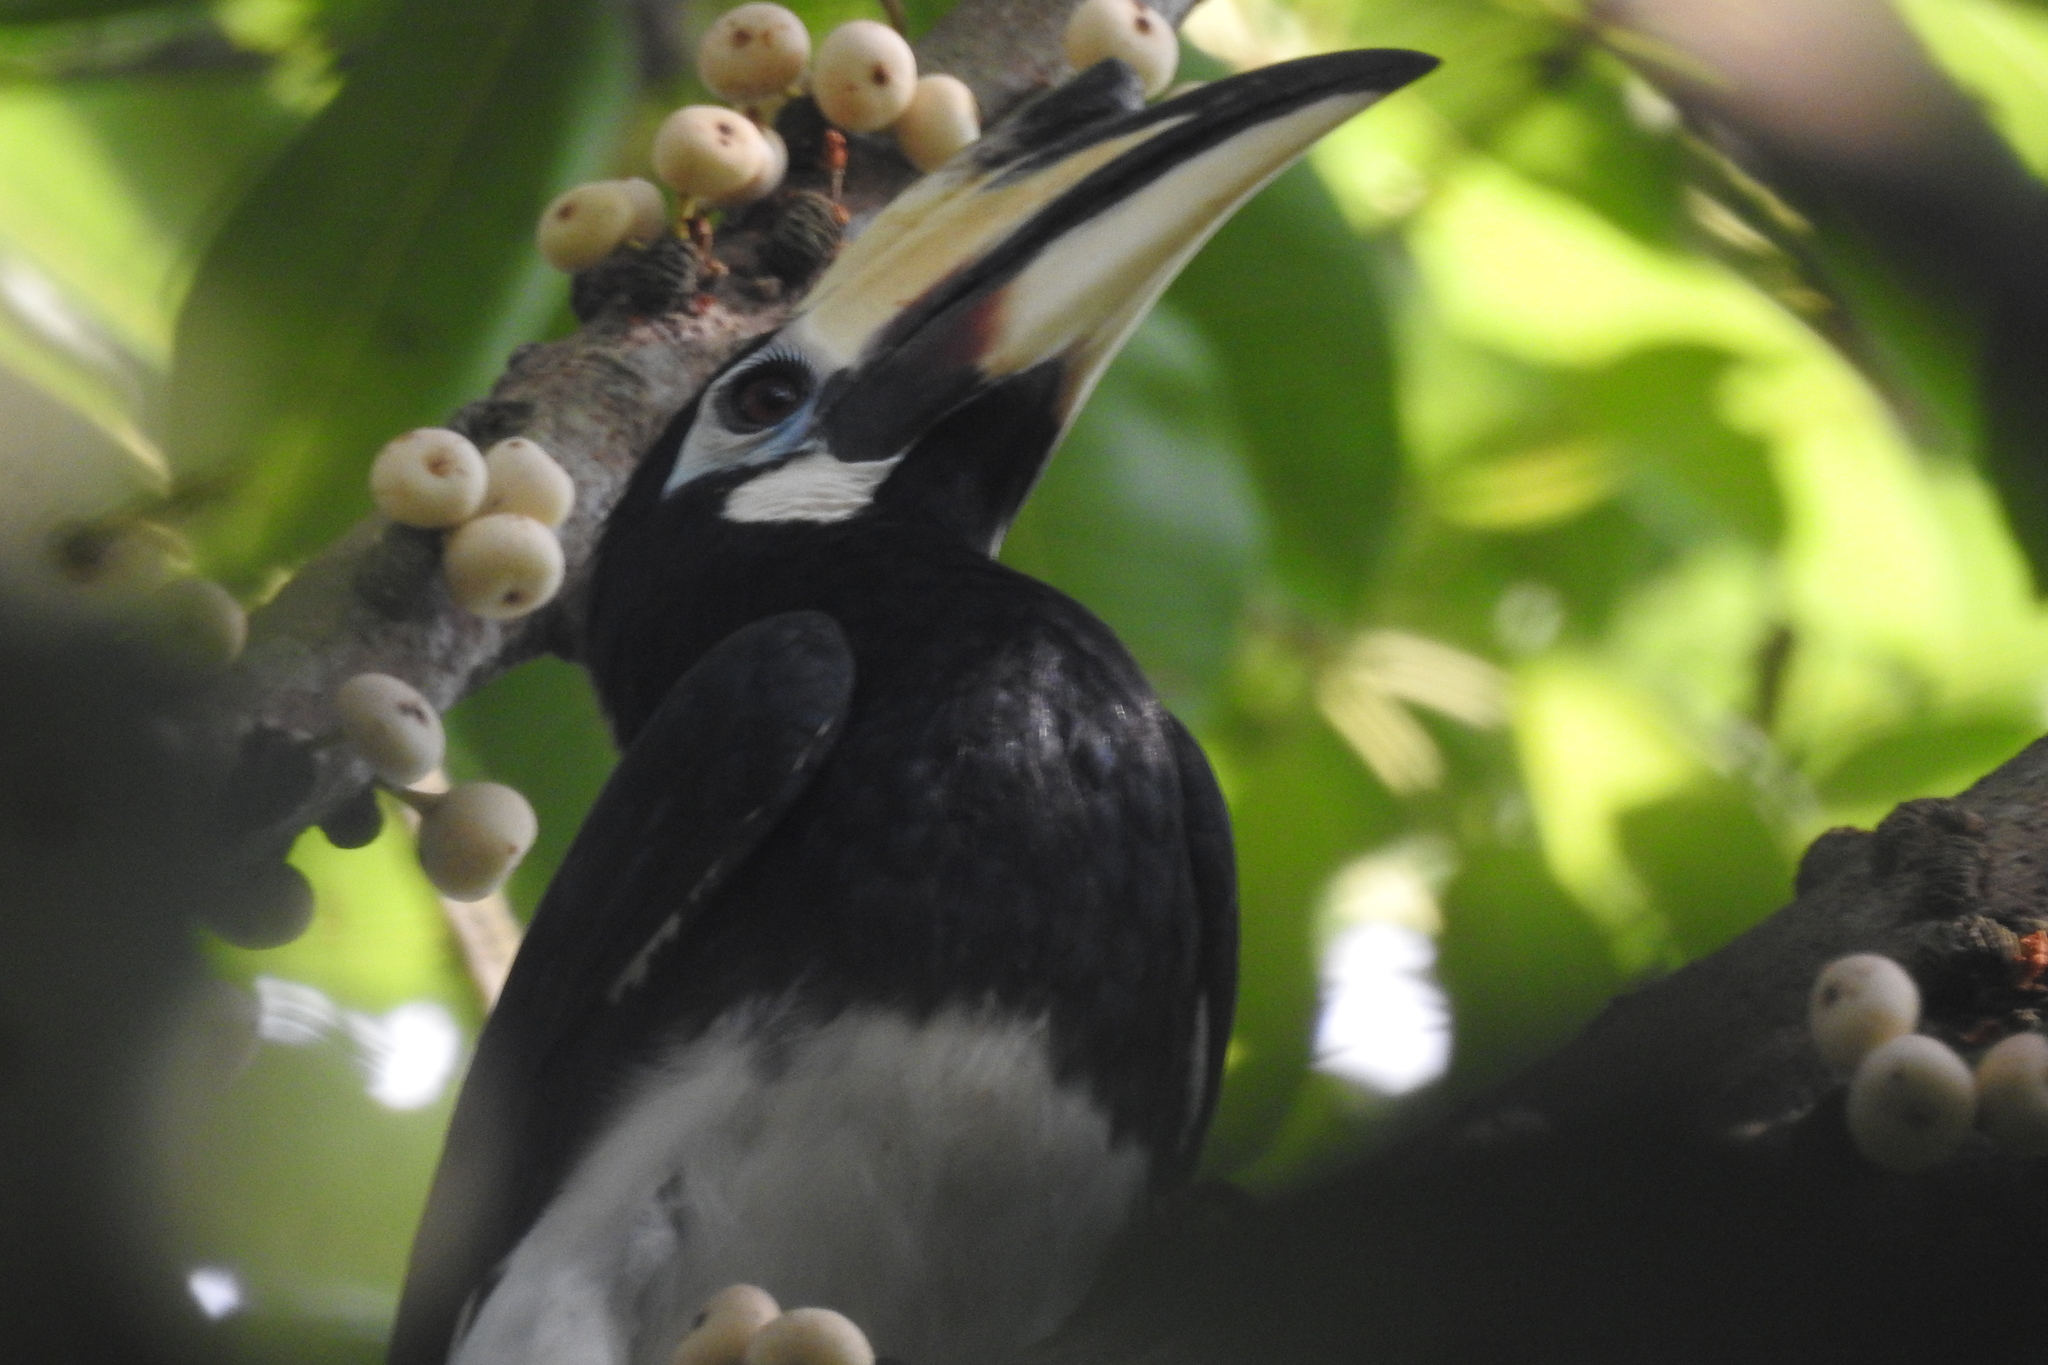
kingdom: Animalia
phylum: Chordata
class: Aves
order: Bucerotiformes
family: Bucerotidae
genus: Anthracoceros
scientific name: Anthracoceros albirostris
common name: Oriental pied-hornbill
